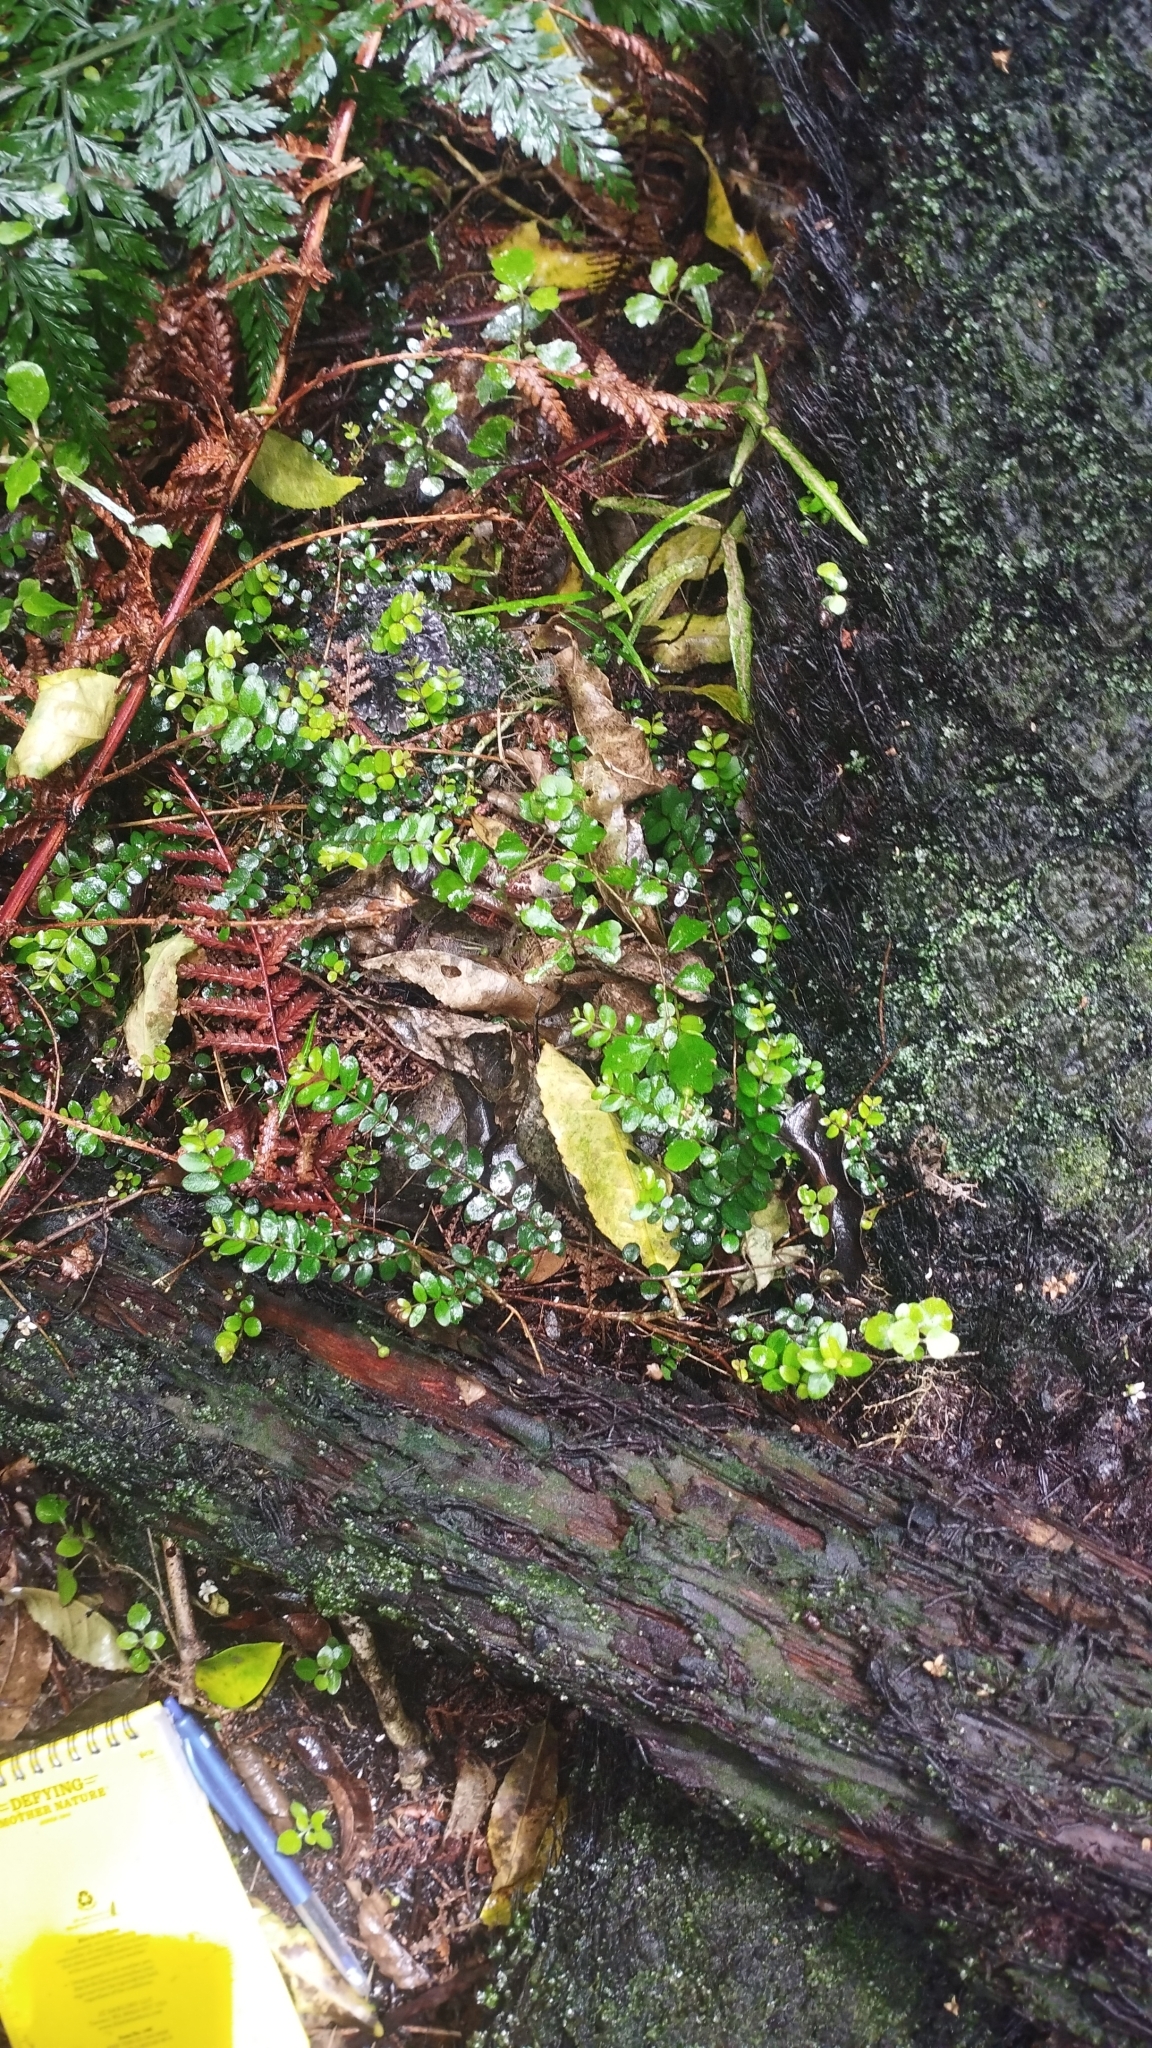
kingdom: Plantae
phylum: Tracheophyta
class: Magnoliopsida
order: Myrtales
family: Myrtaceae
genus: Metrosideros
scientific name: Metrosideros diffusa
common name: Small ratavine
